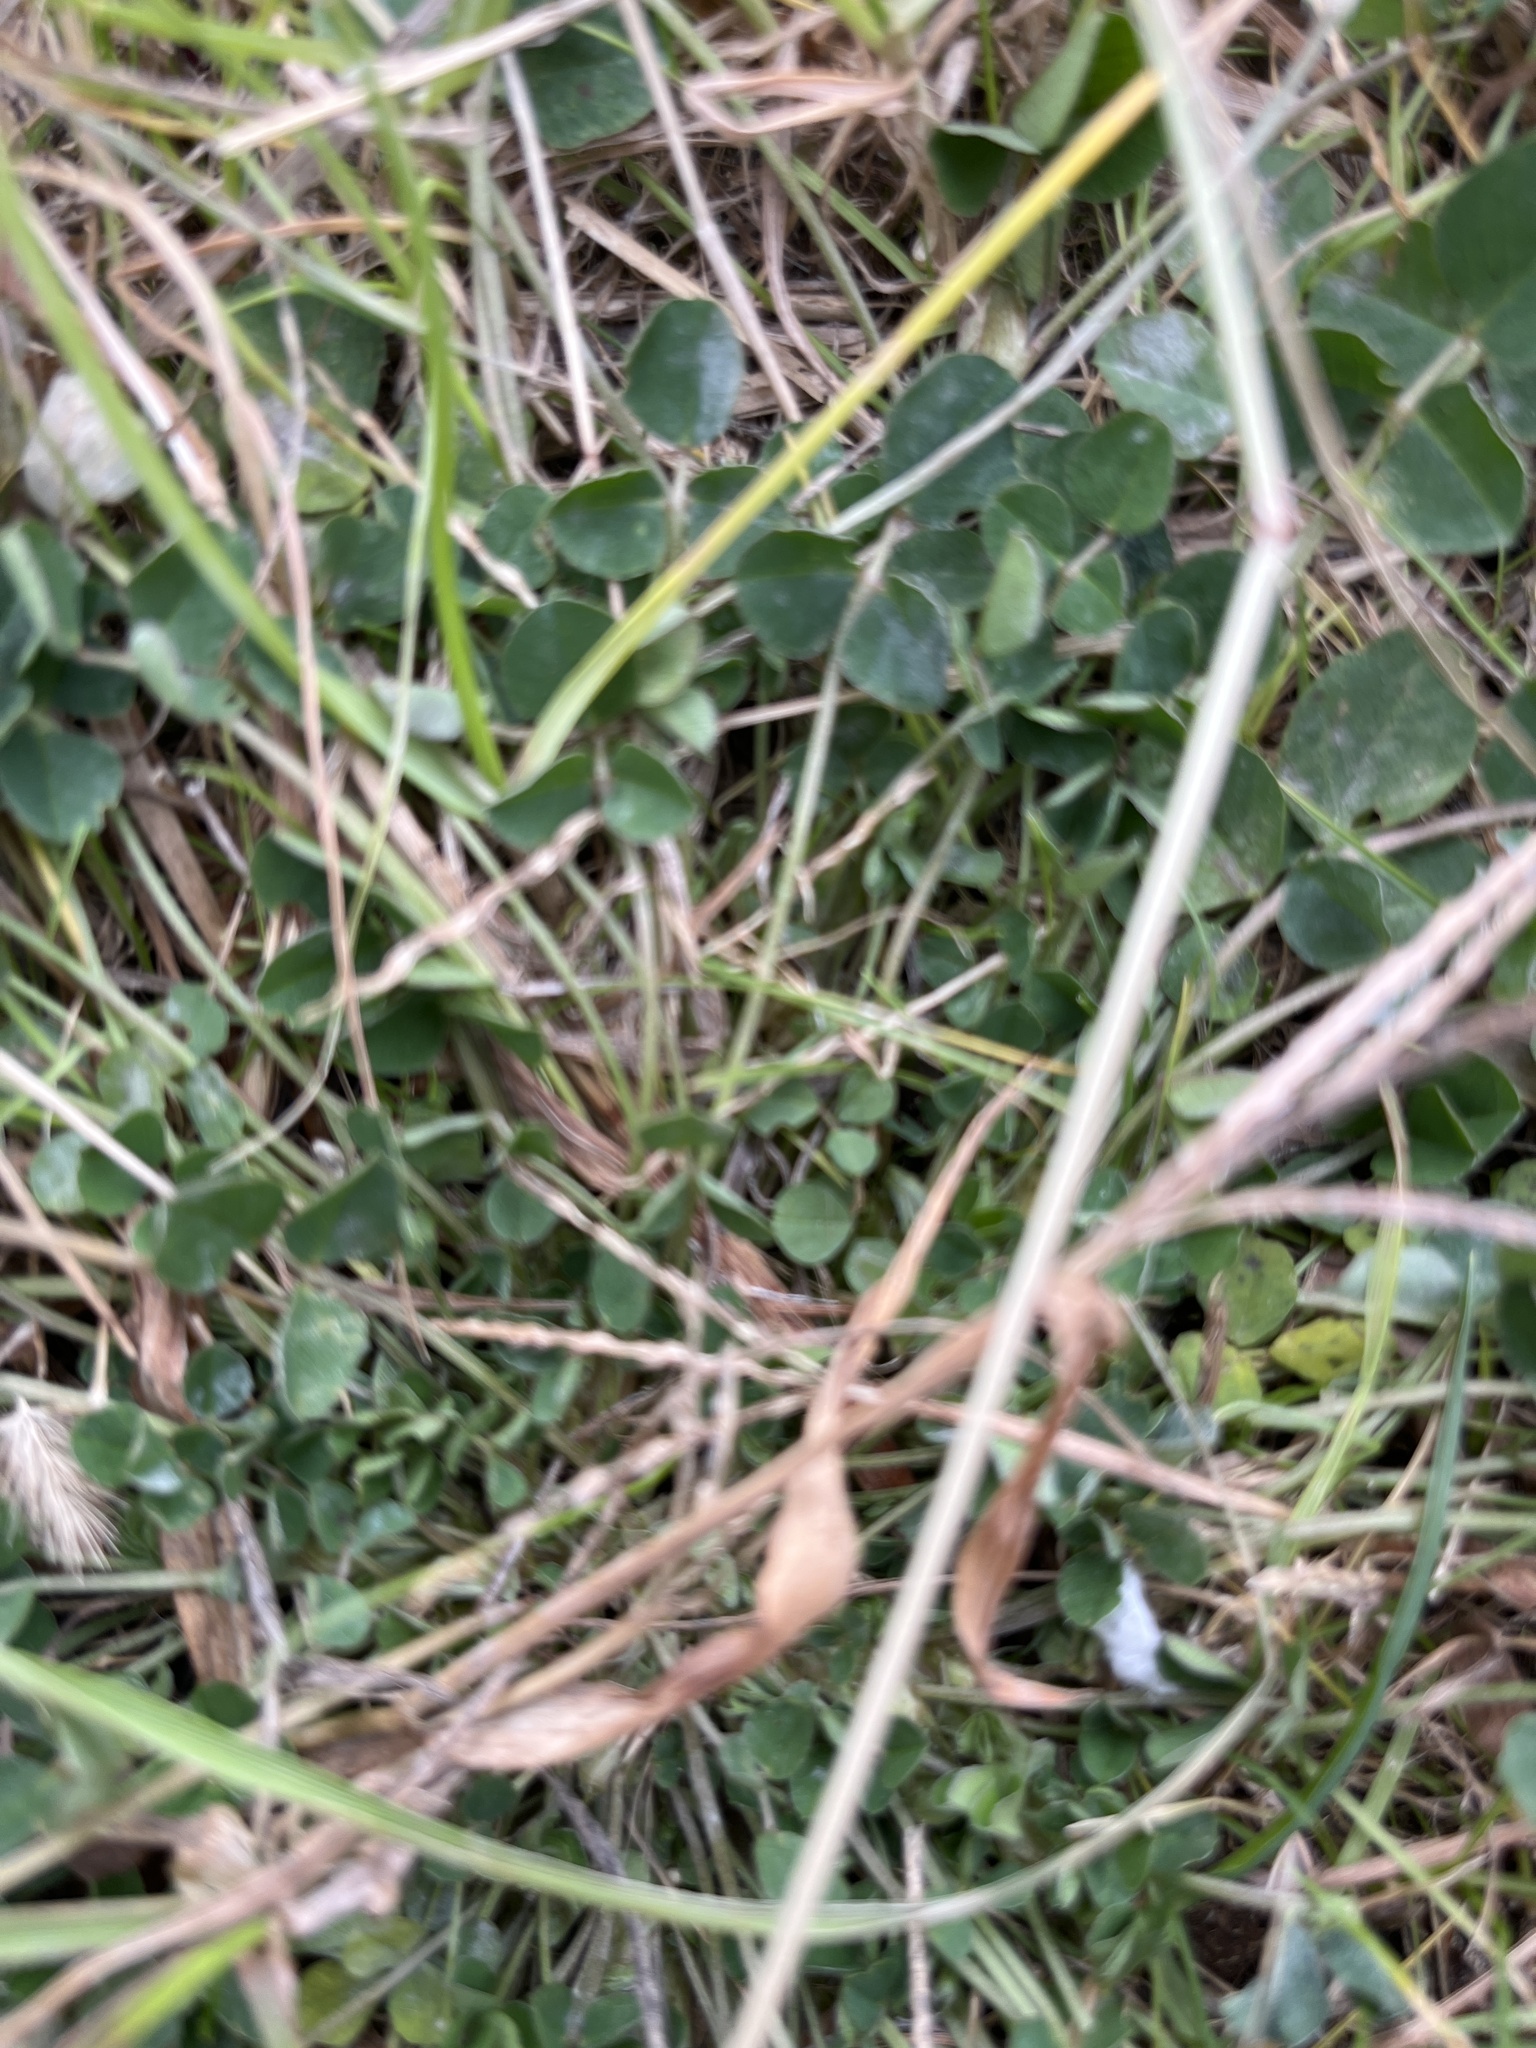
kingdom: Plantae
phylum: Tracheophyta
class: Magnoliopsida
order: Fabales
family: Fabaceae
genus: Medicago
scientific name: Medicago lupulina
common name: Black medick
